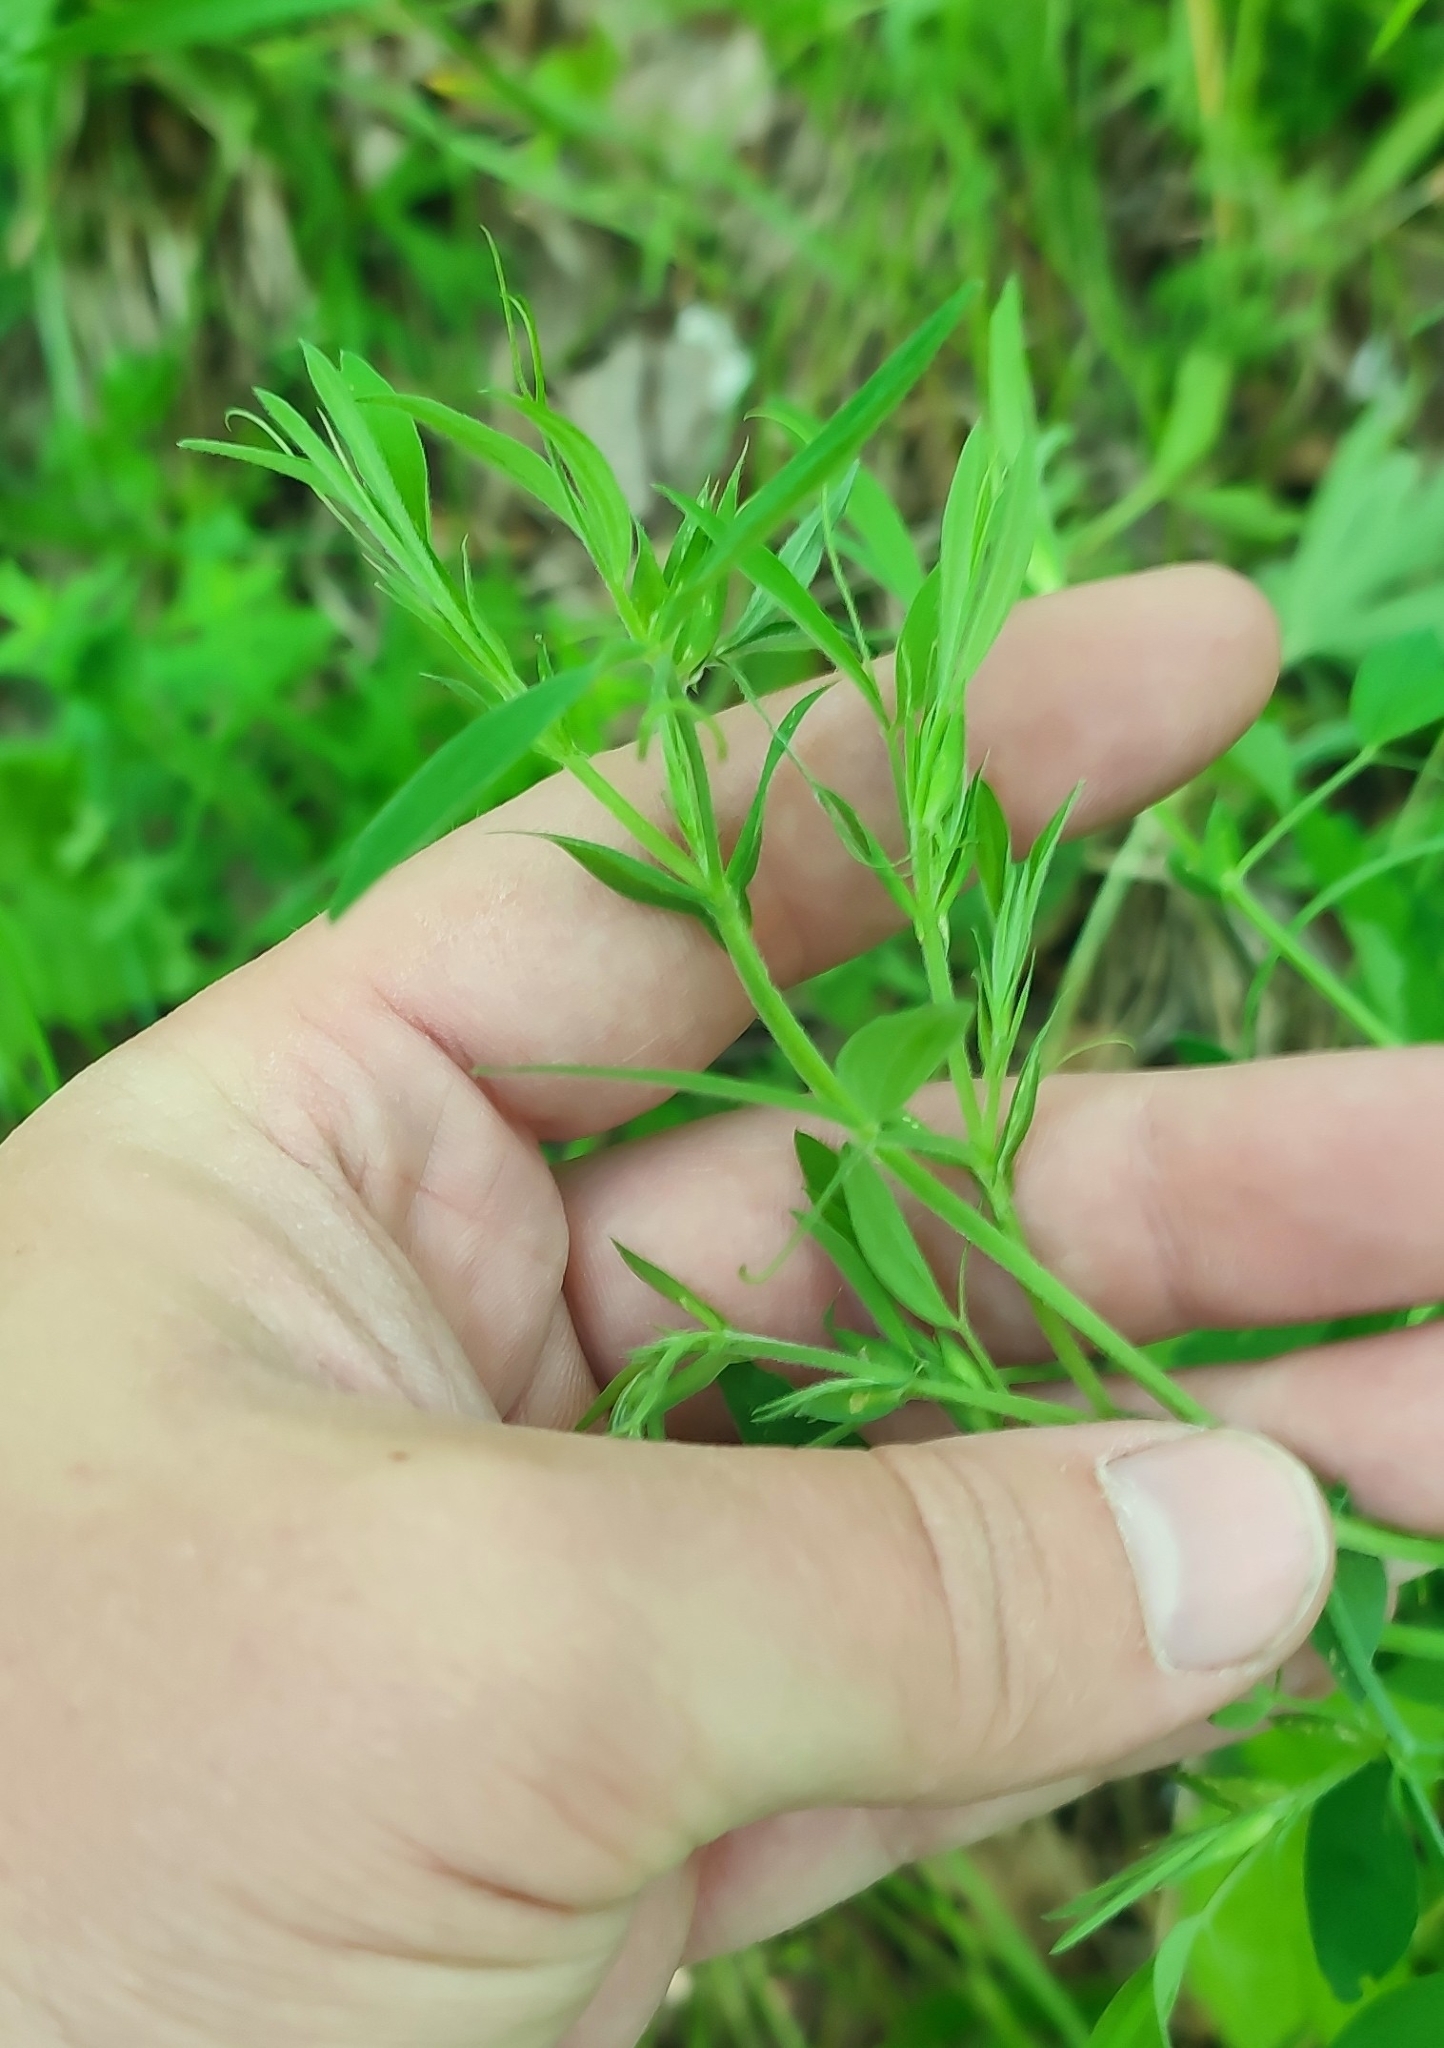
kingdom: Plantae
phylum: Tracheophyta
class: Magnoliopsida
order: Fabales
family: Fabaceae
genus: Lathyrus
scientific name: Lathyrus pratensis
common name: Meadow vetchling
